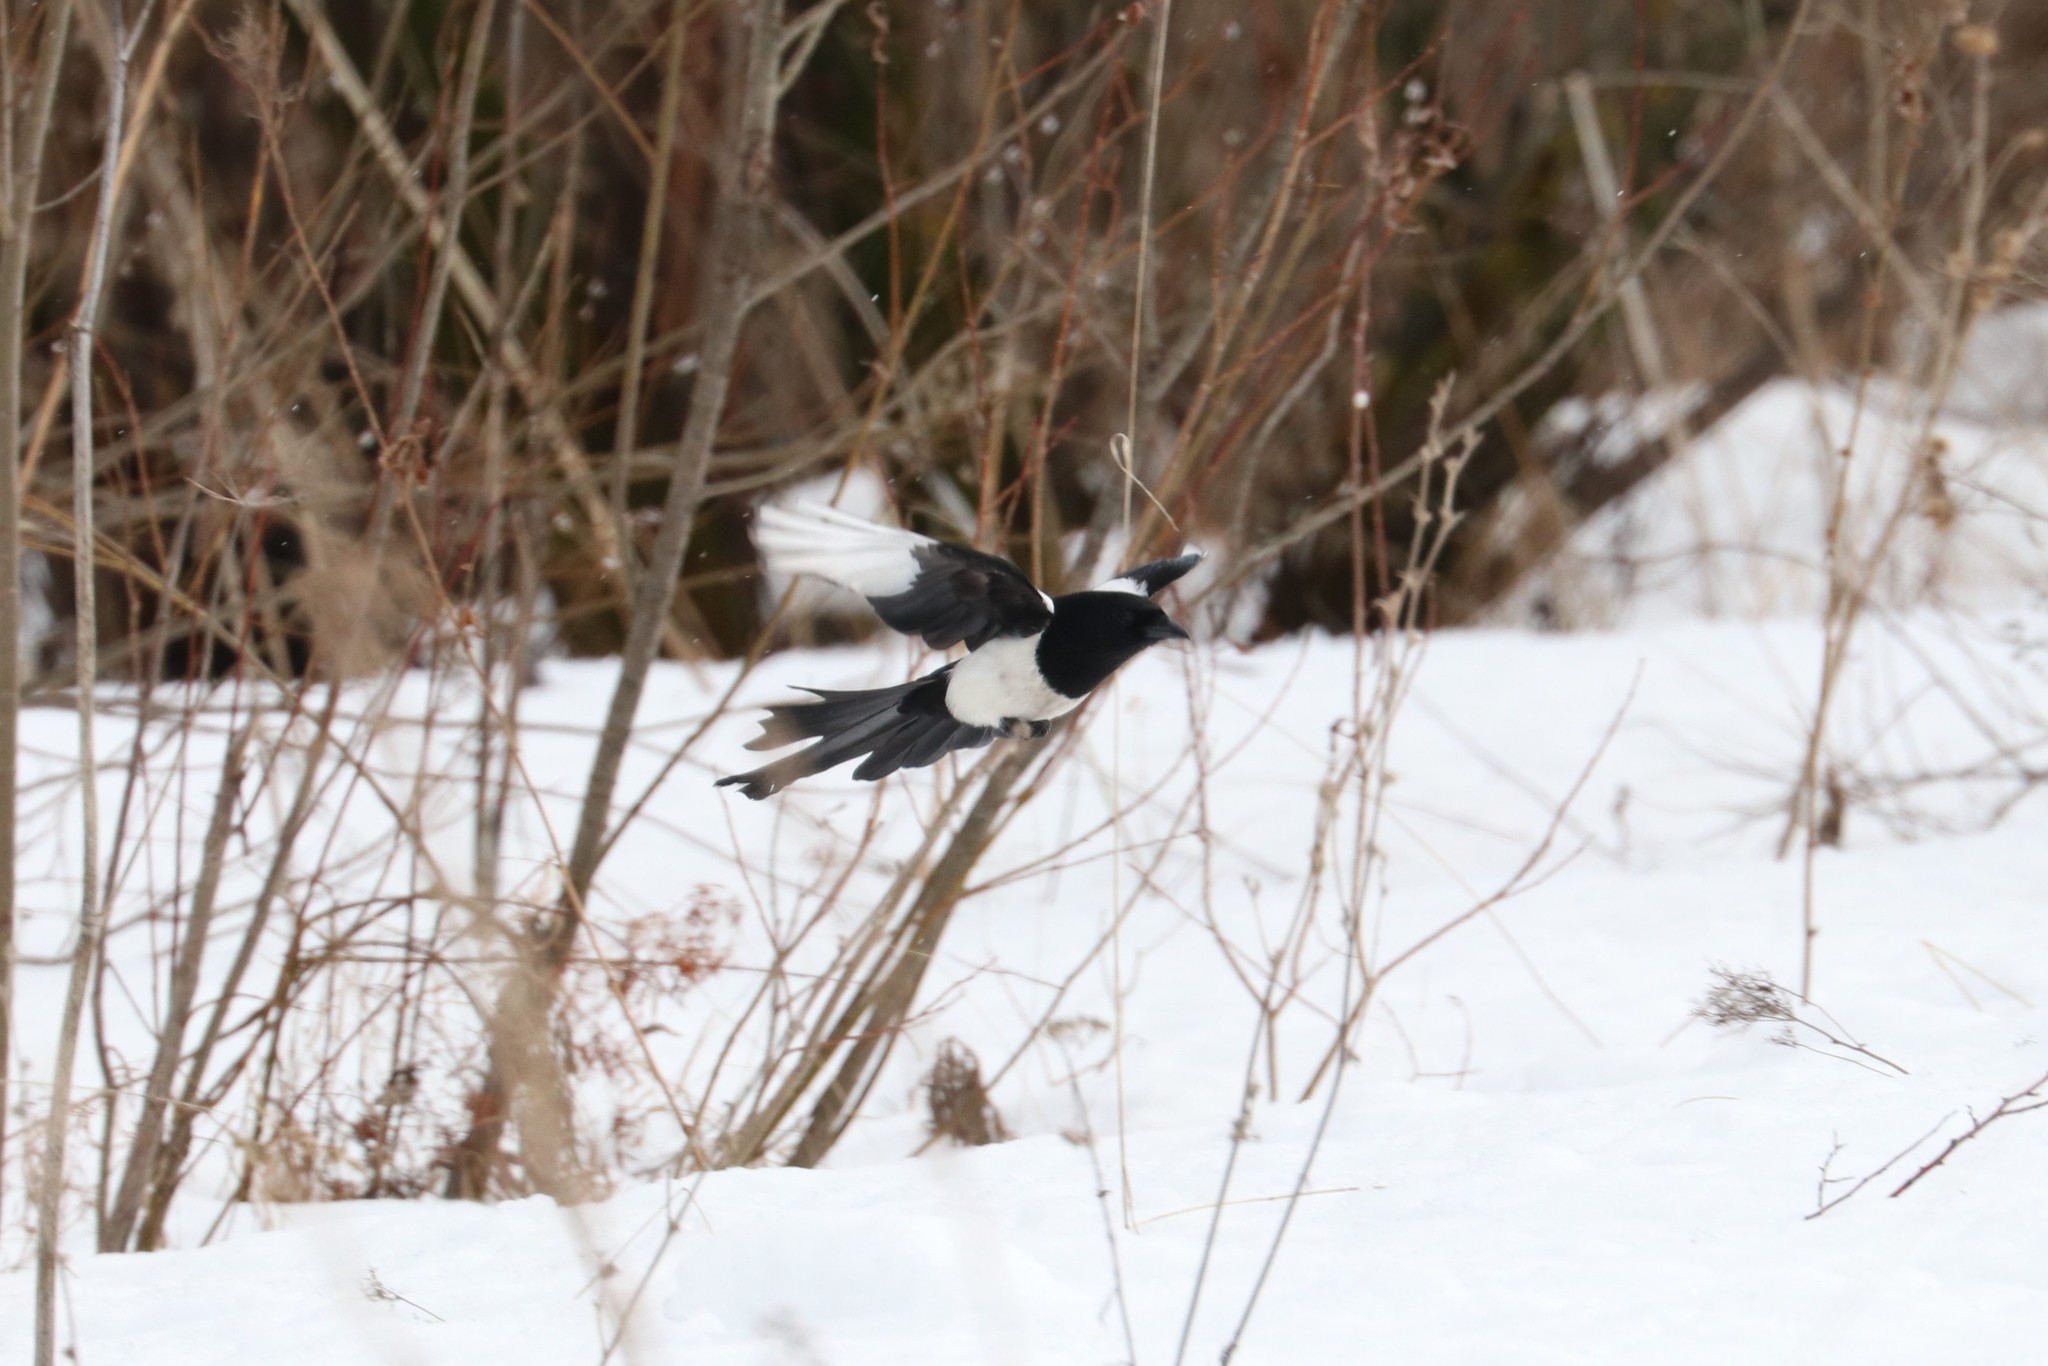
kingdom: Animalia
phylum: Chordata
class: Aves
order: Passeriformes
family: Corvidae
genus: Pica
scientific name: Pica pica
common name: Eurasian magpie
